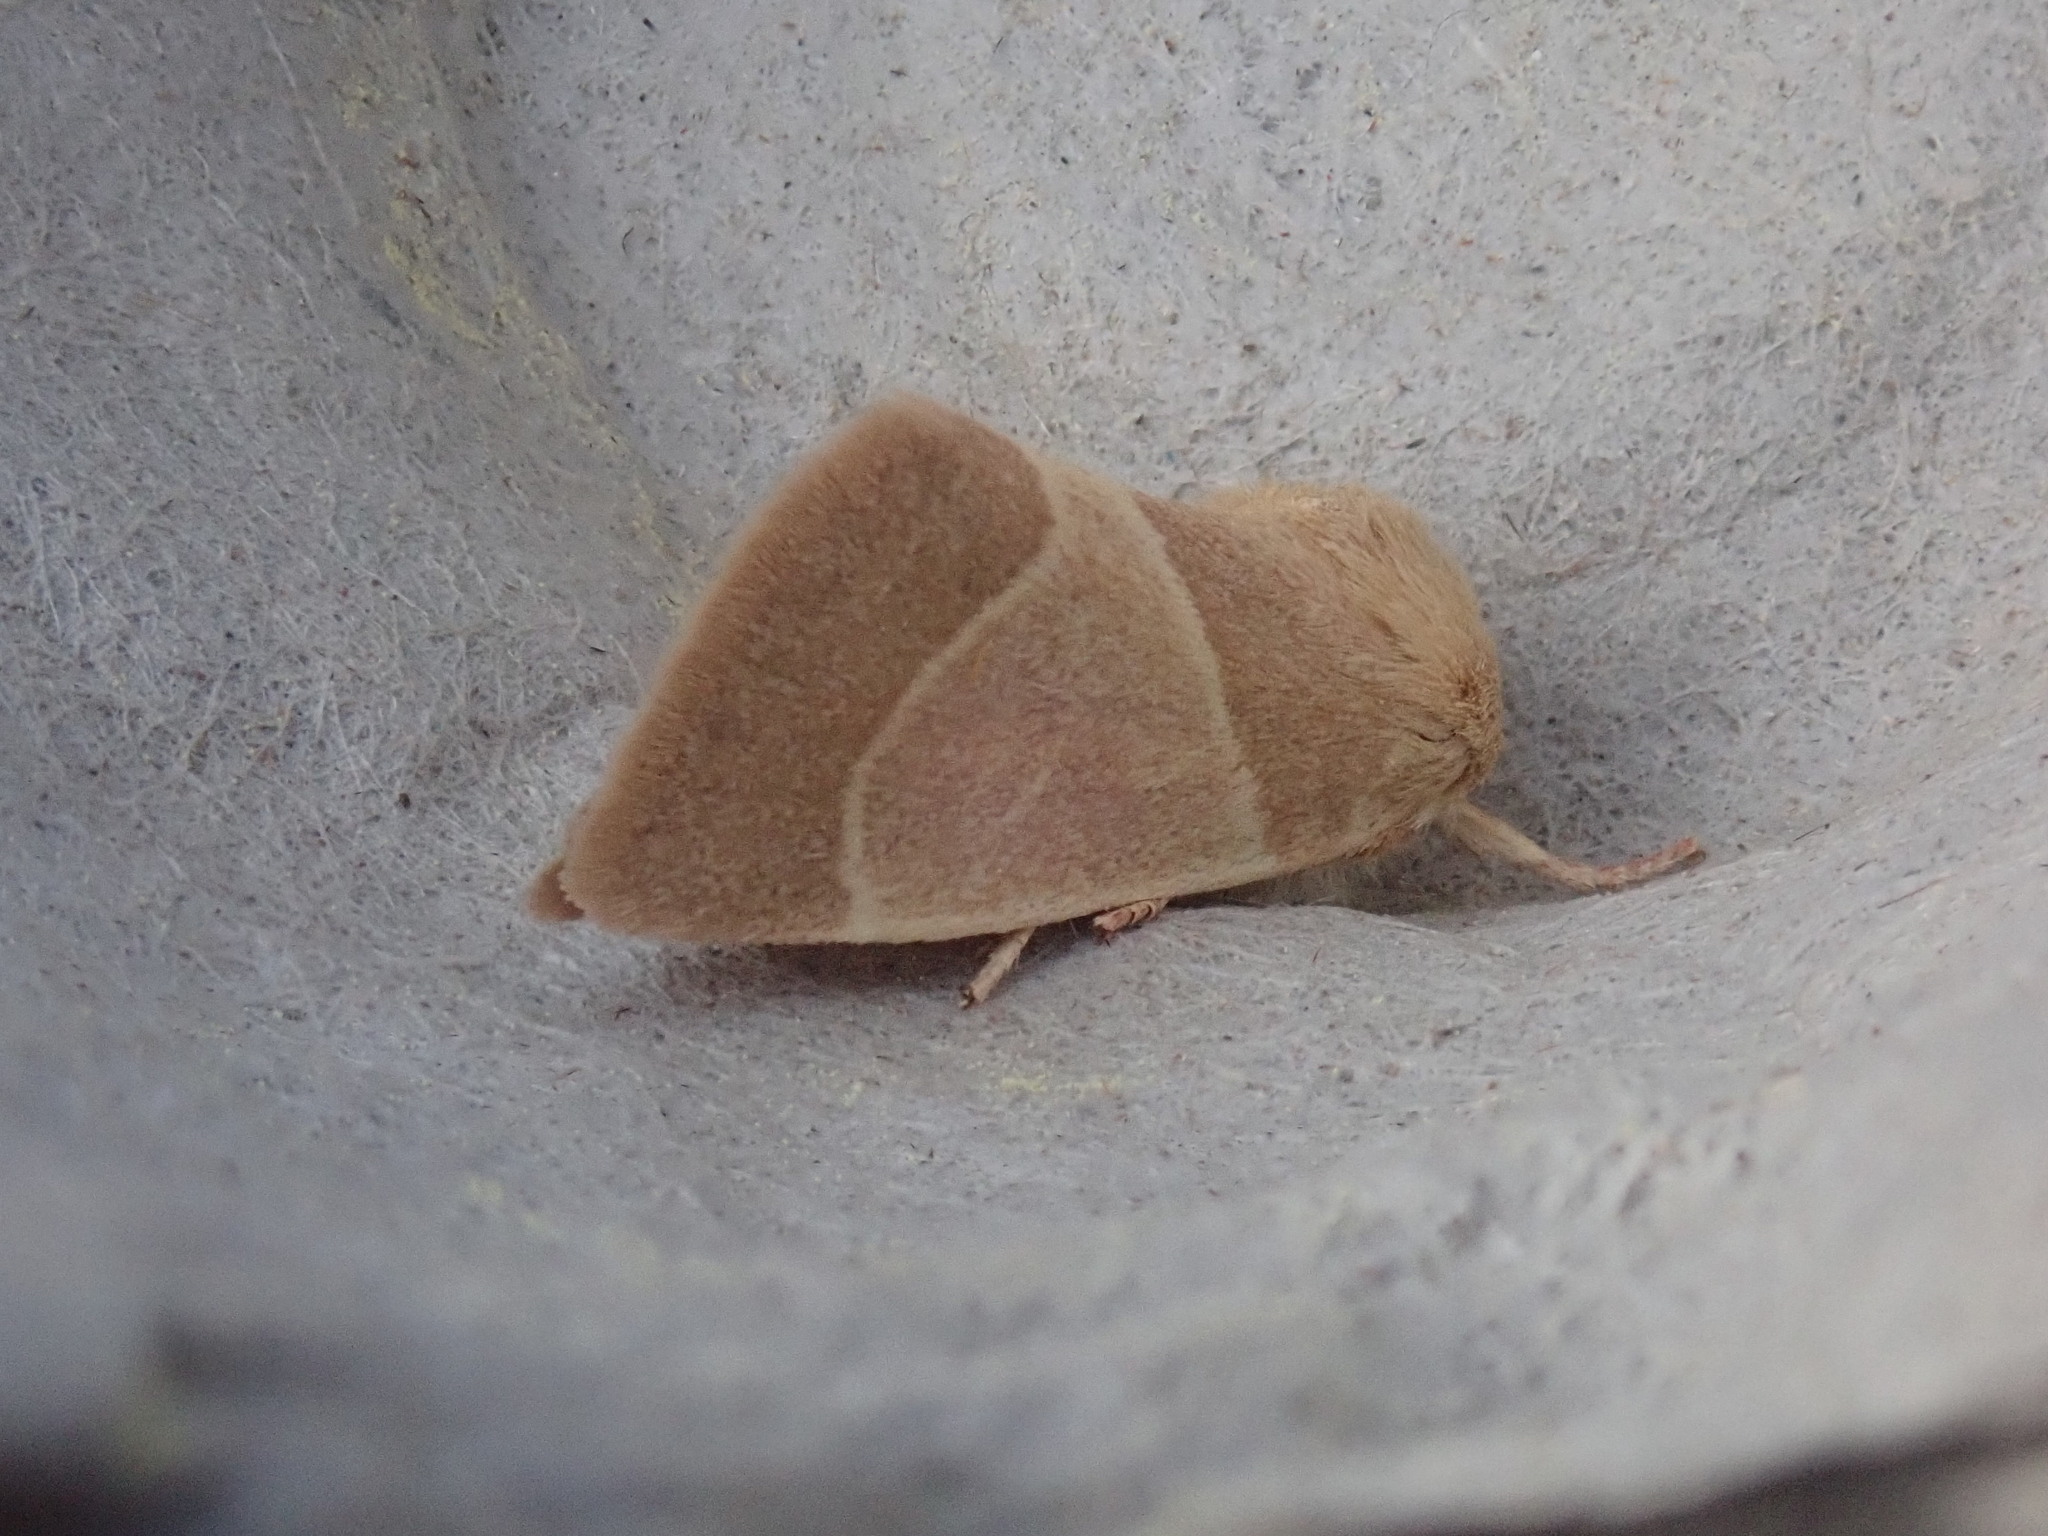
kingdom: Animalia
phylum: Arthropoda
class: Insecta
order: Lepidoptera
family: Noctuidae
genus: Cosmia
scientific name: Cosmia calami
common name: American dun-bar moth
